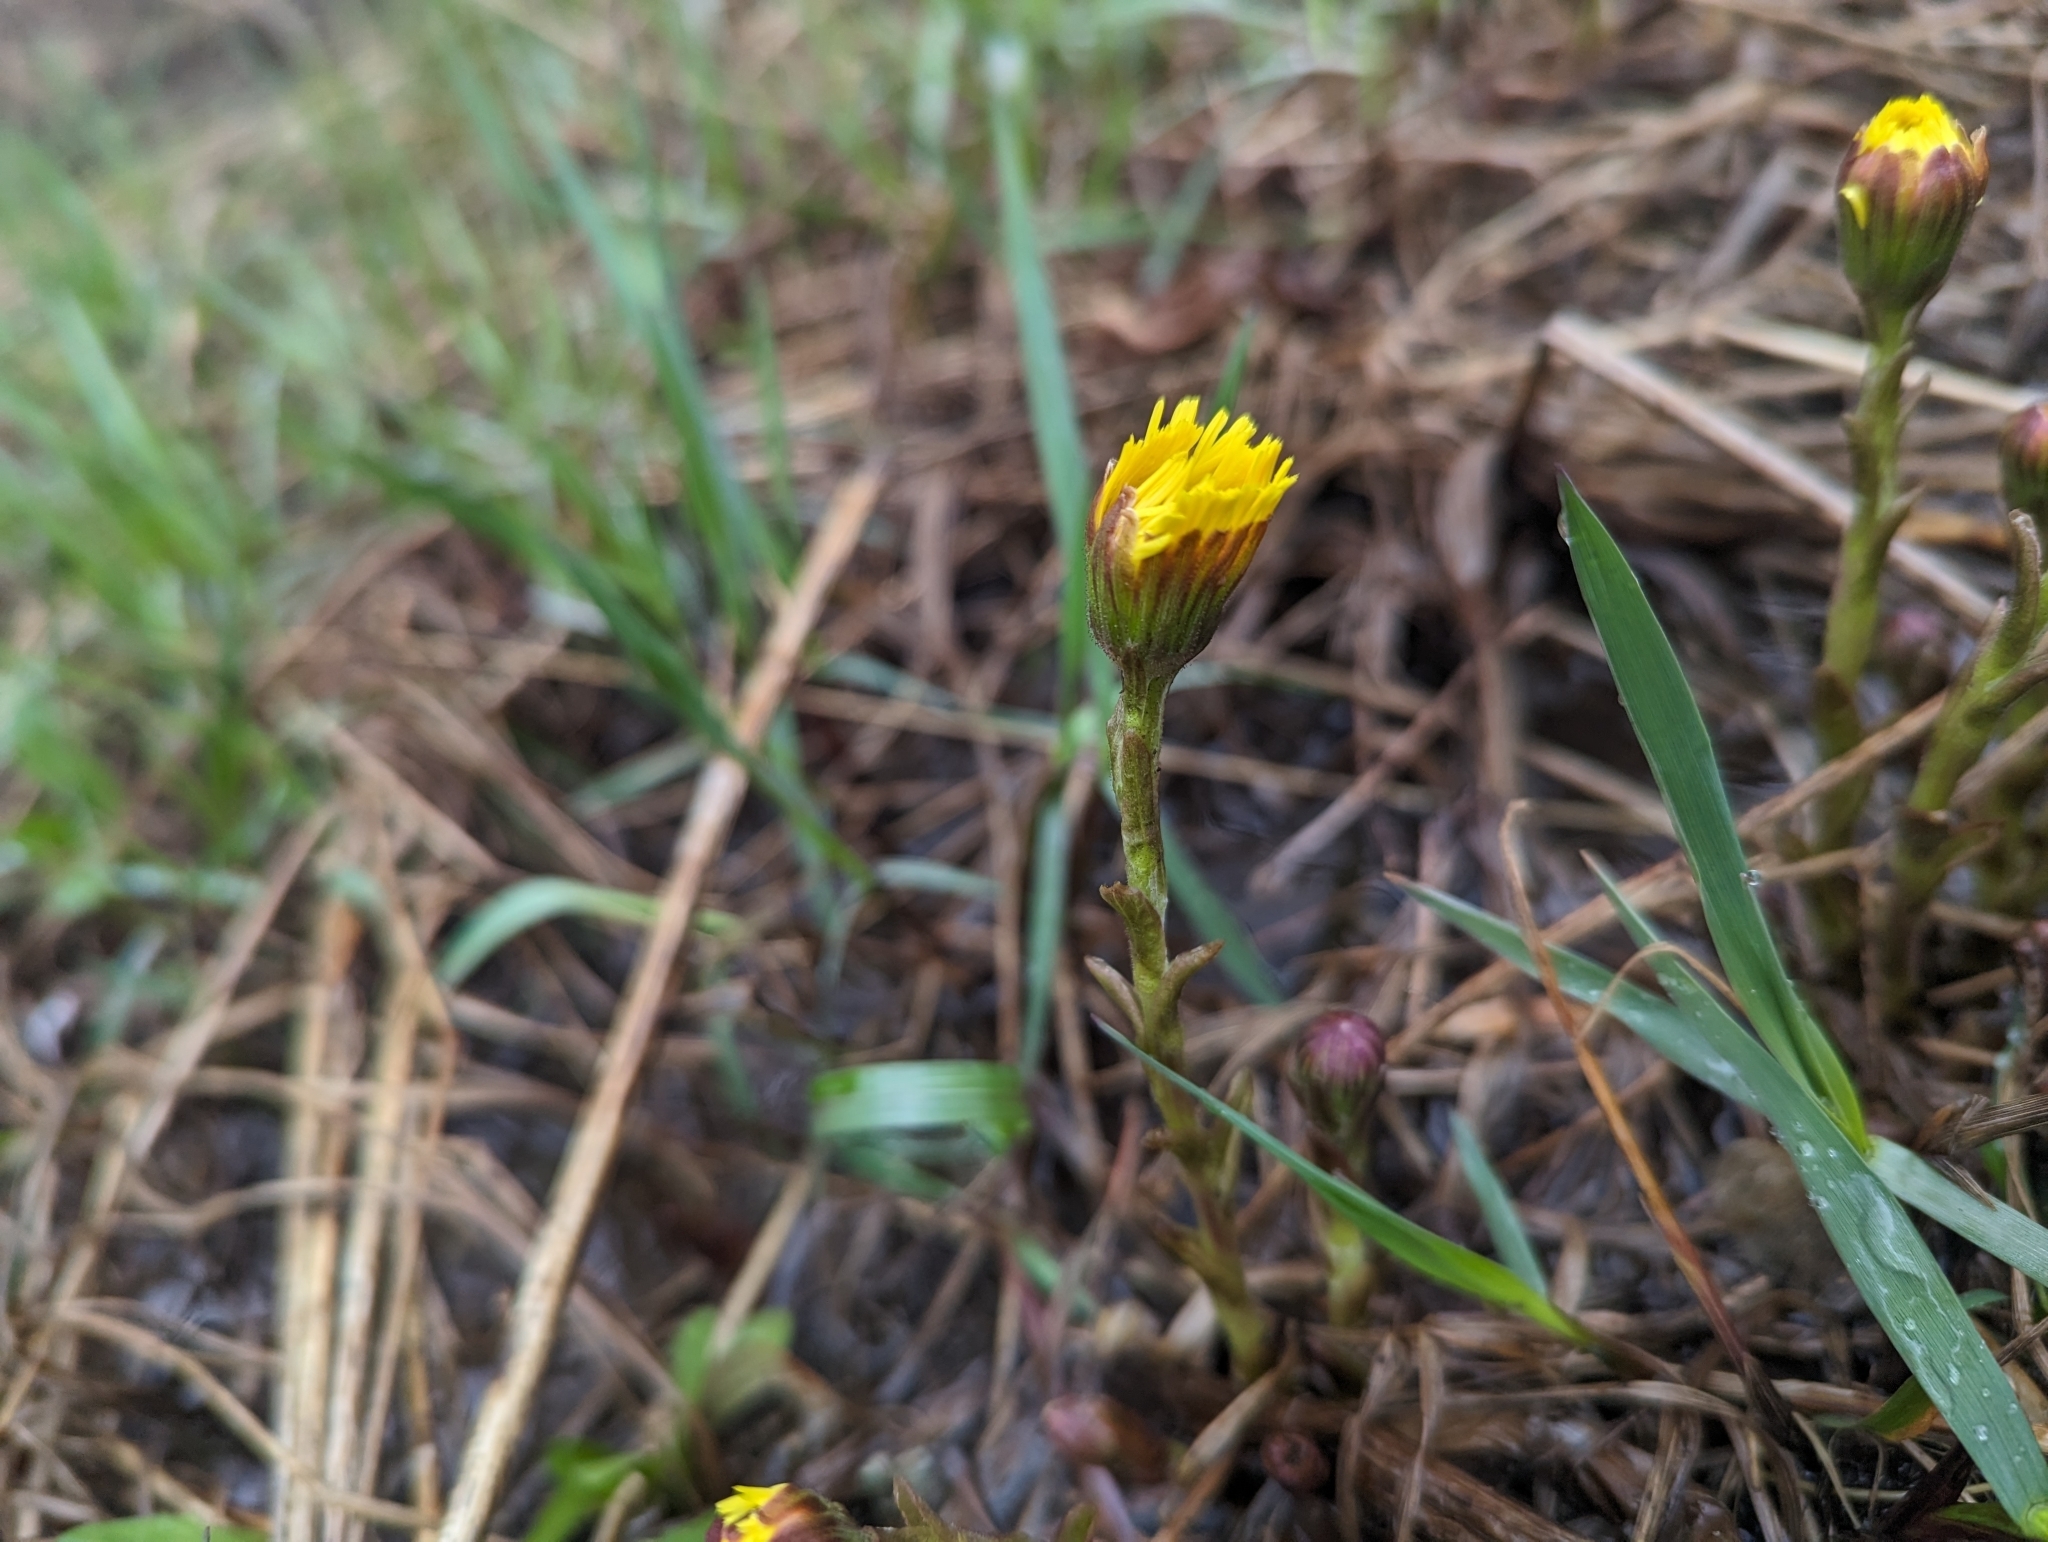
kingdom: Plantae
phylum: Tracheophyta
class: Magnoliopsida
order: Asterales
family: Asteraceae
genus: Tussilago
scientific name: Tussilago farfara
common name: Coltsfoot
